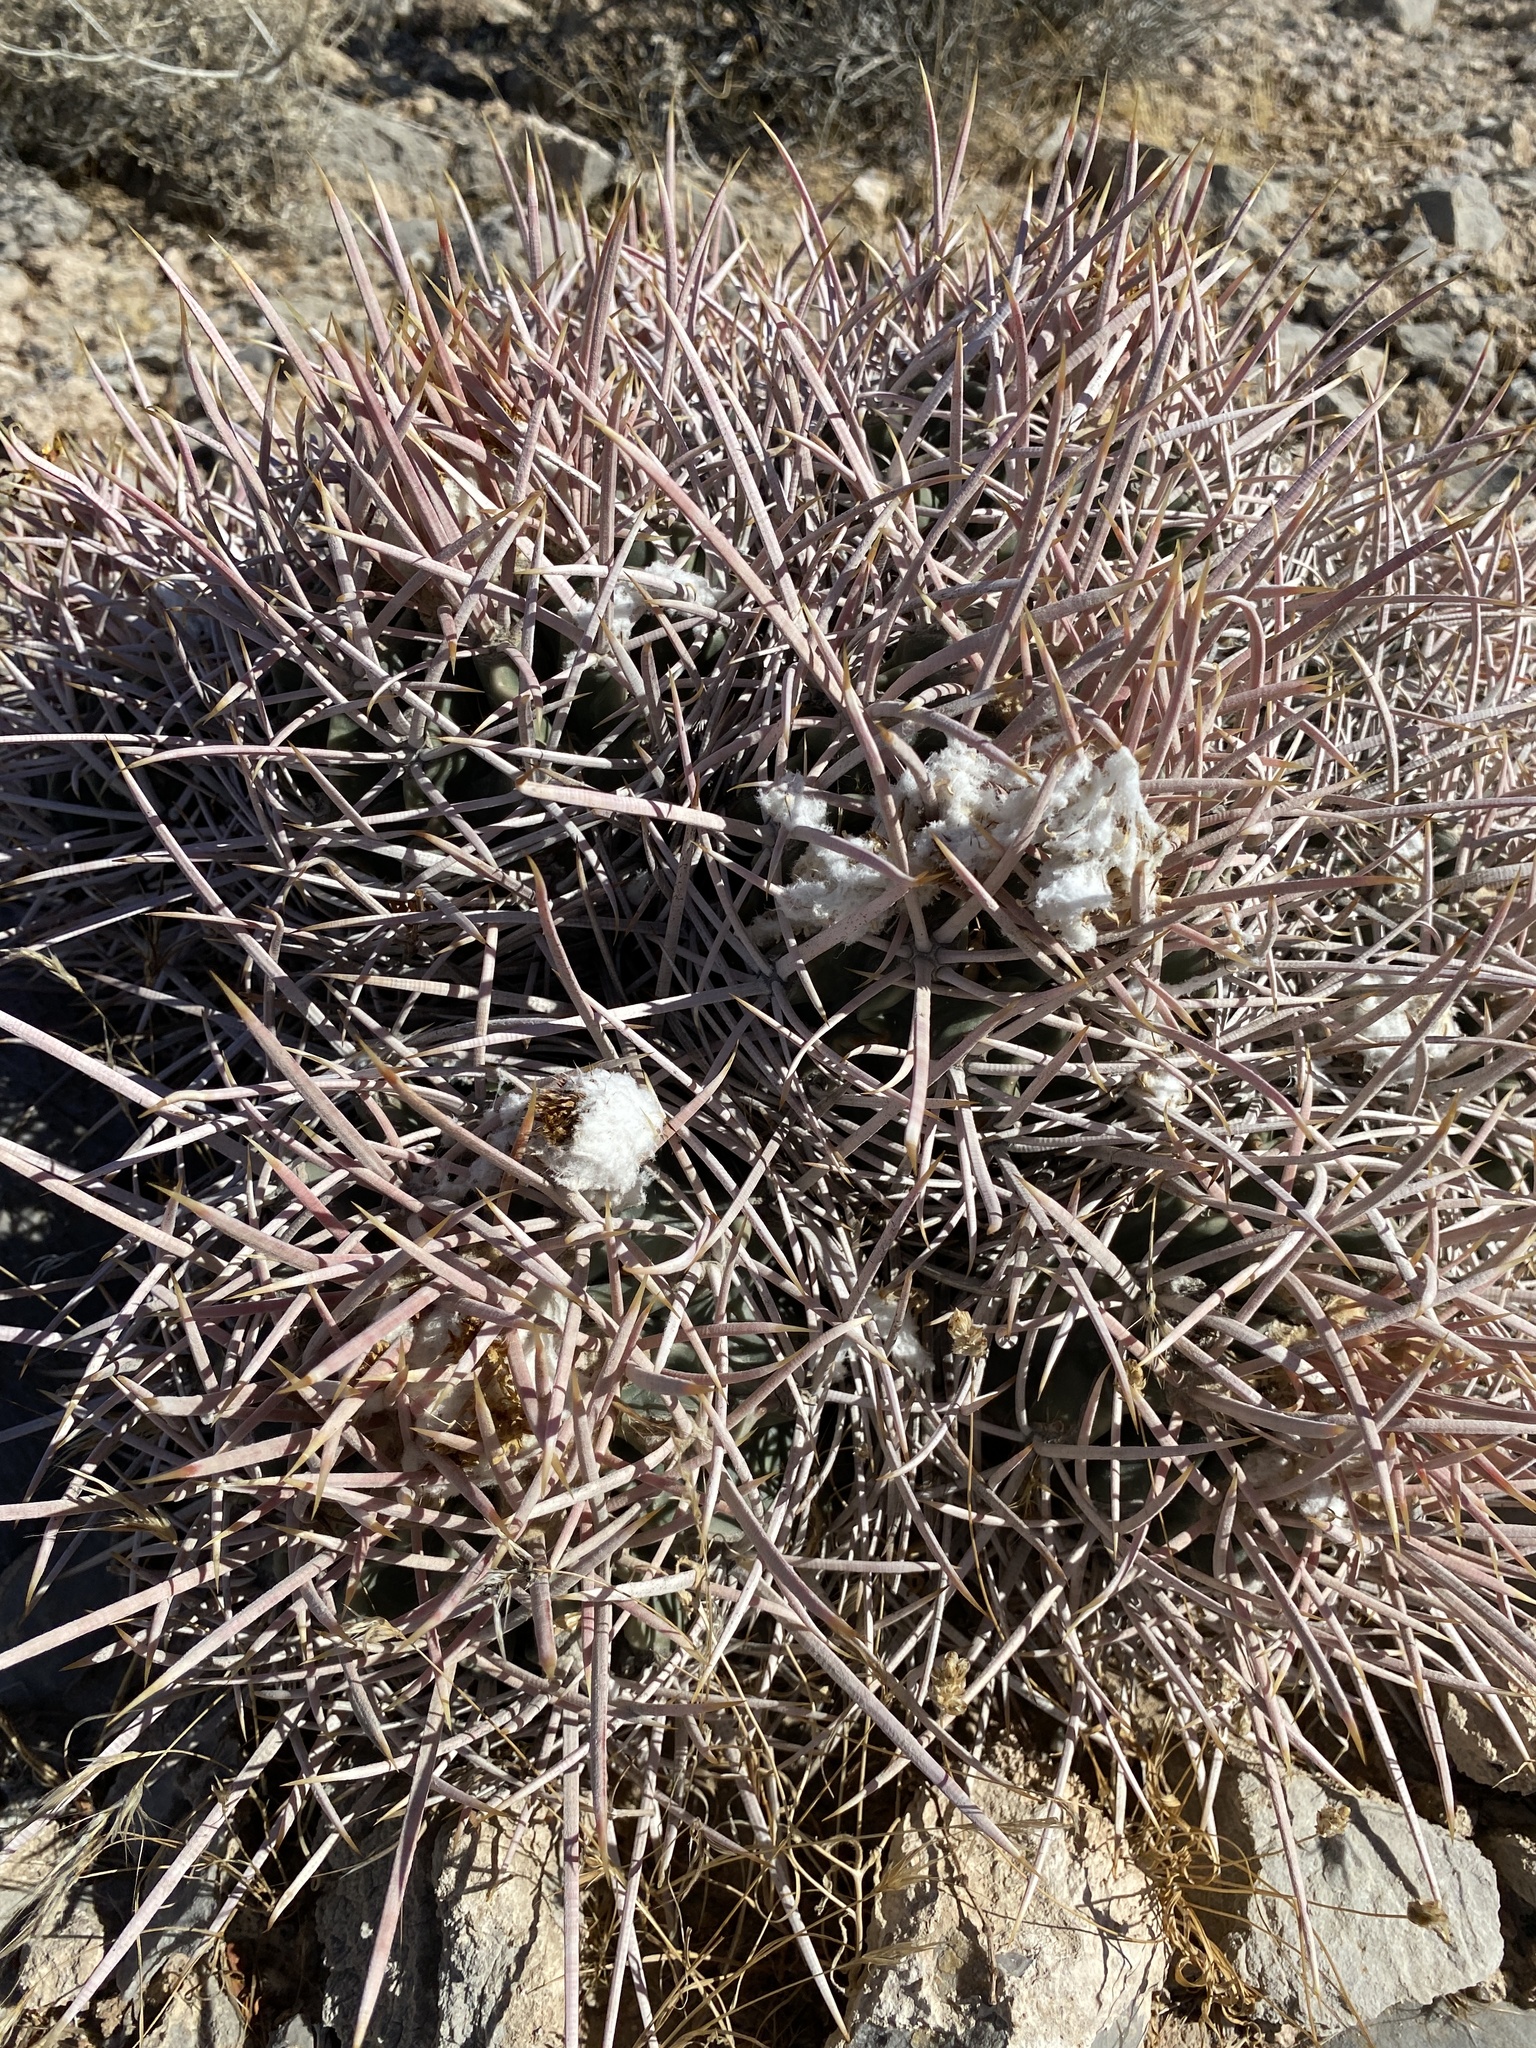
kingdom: Plantae
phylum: Tracheophyta
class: Magnoliopsida
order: Caryophyllales
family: Cactaceae
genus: Echinocactus
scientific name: Echinocactus polycephalus
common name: Cottontop cactus
